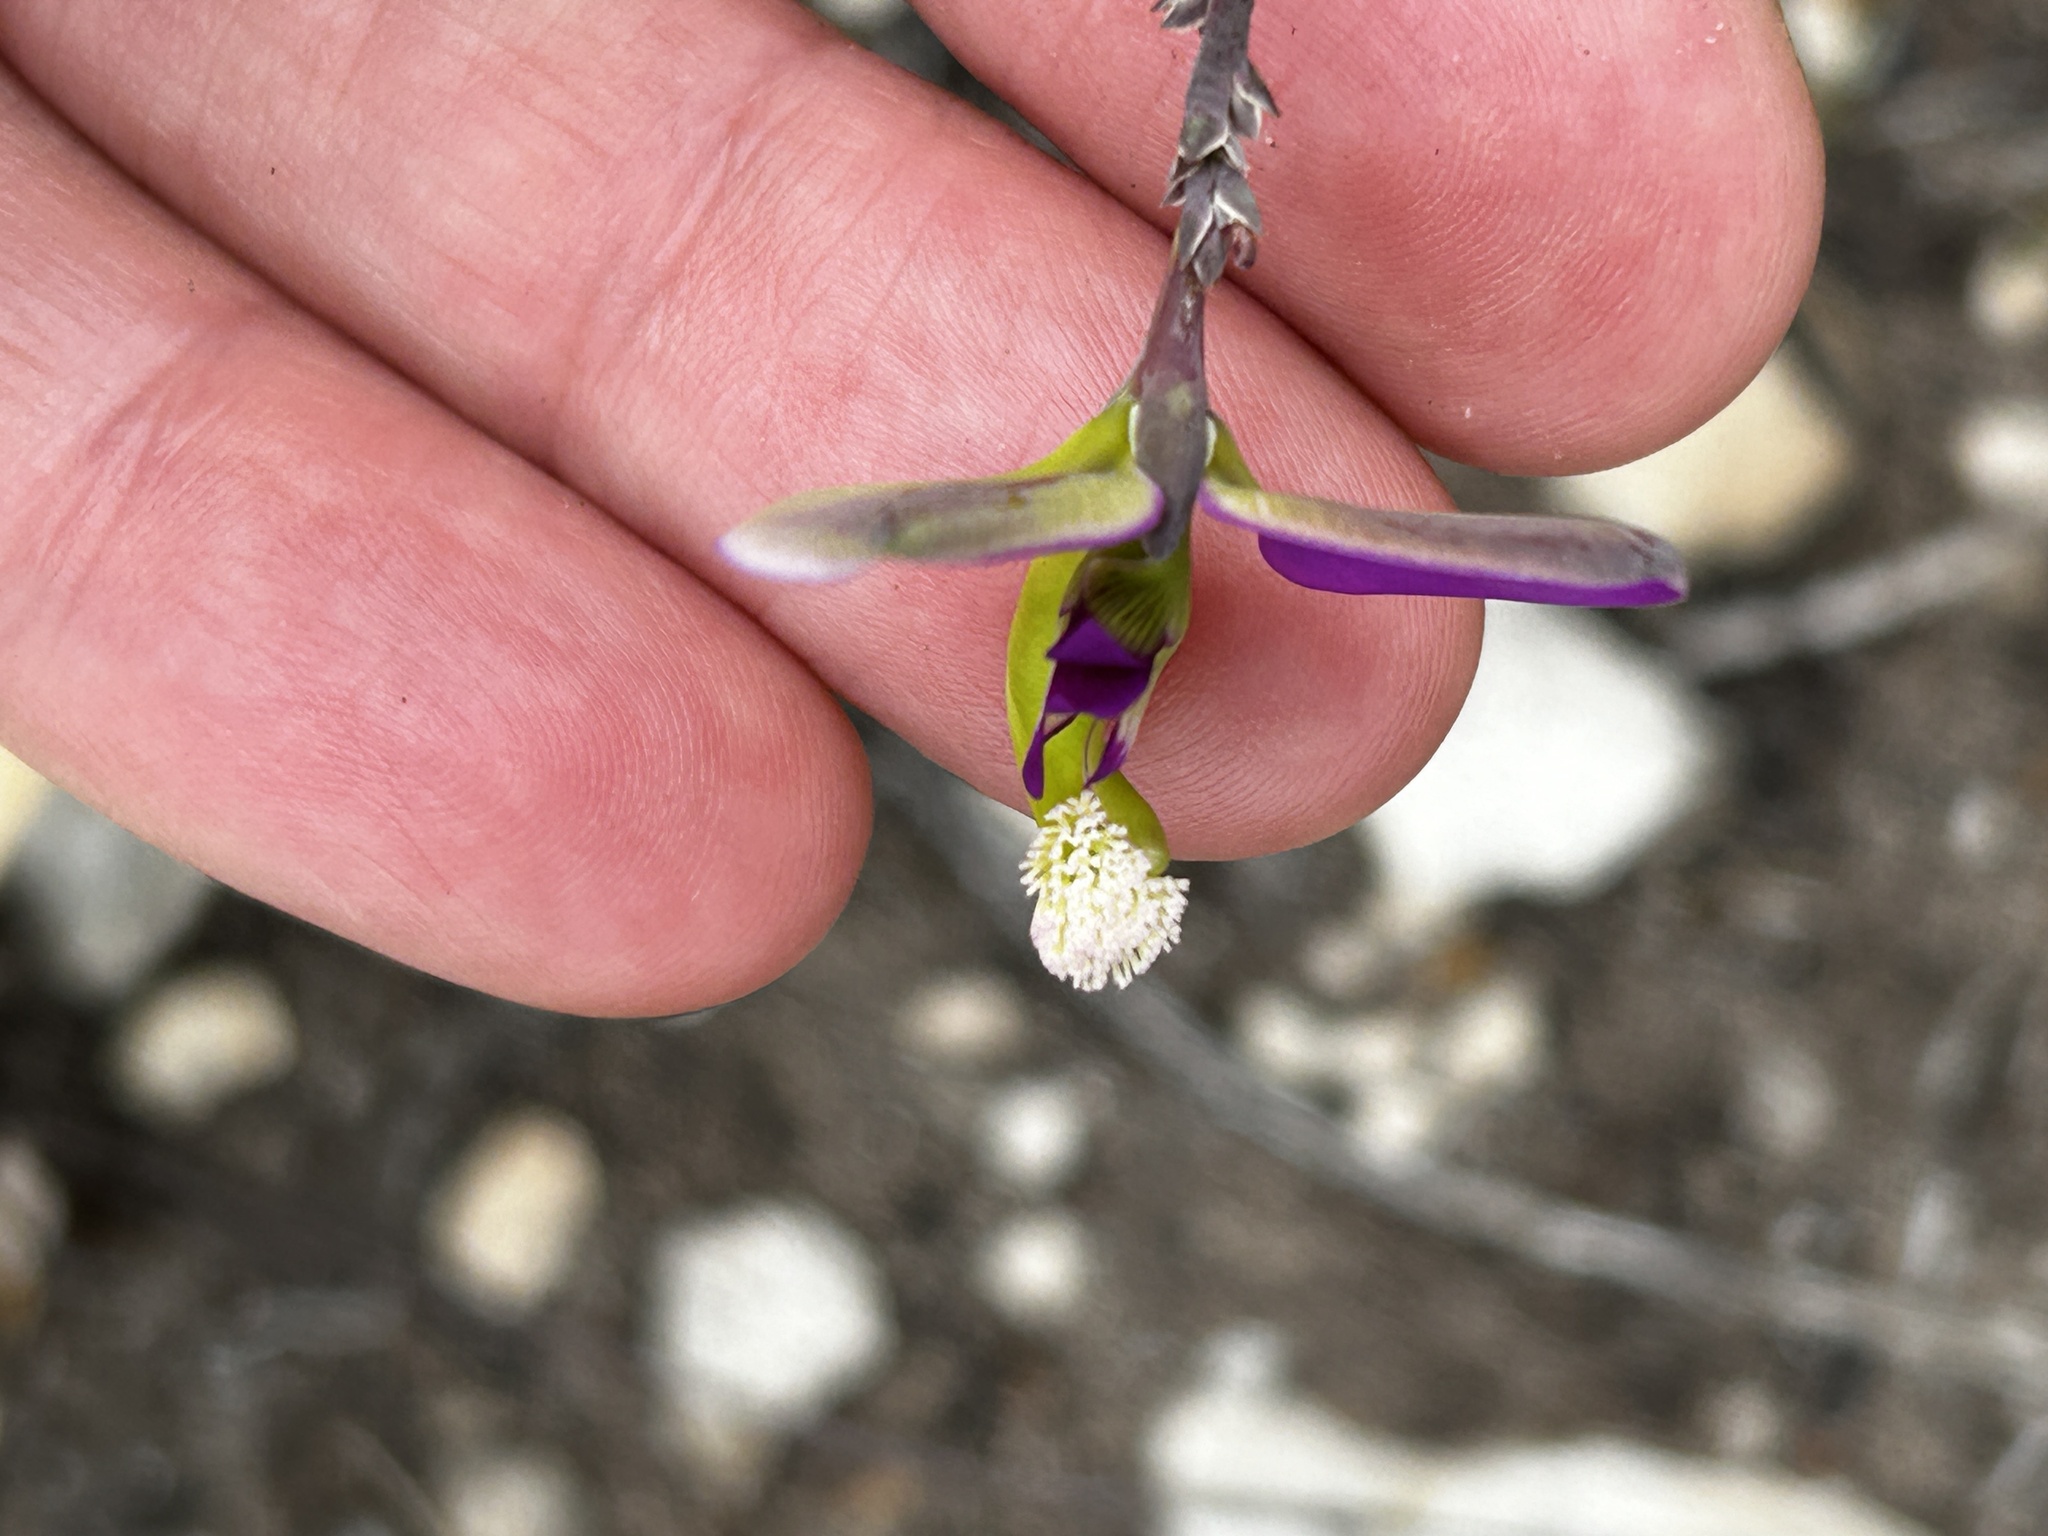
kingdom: Plantae
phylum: Tracheophyta
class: Magnoliopsida
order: Fabales
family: Polygalaceae
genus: Polygala
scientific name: Polygala peduncularis
